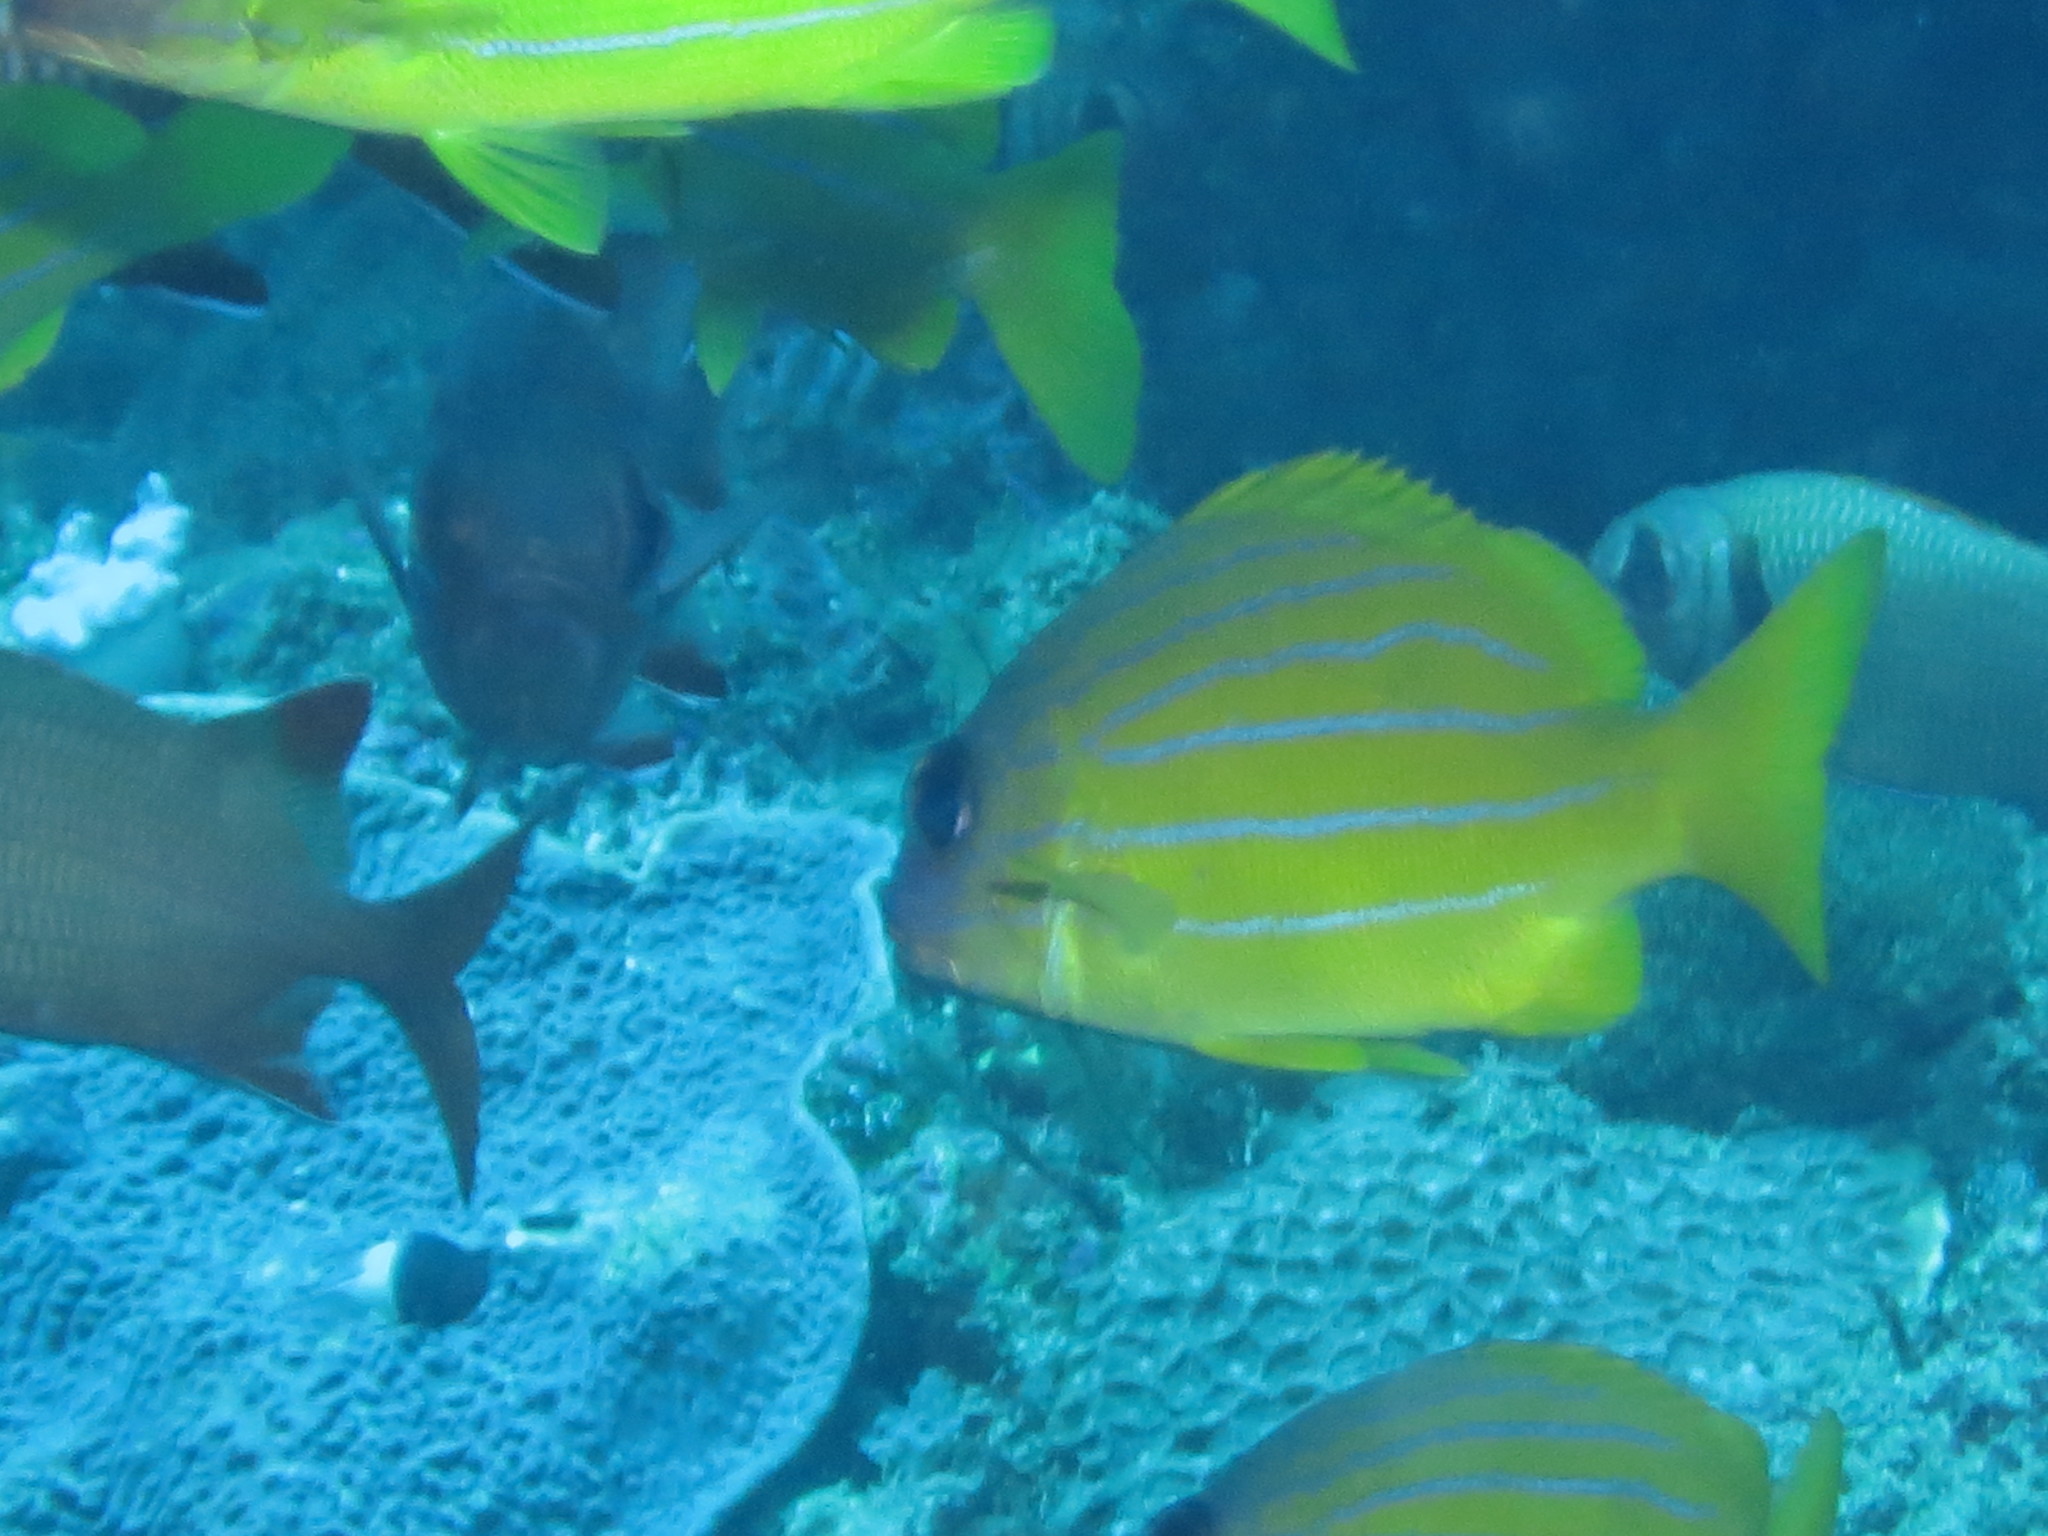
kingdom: Animalia
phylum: Chordata
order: Perciformes
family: Lutjanidae
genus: Lutjanus
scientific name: Lutjanus notatus
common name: Bluestriped snapper
